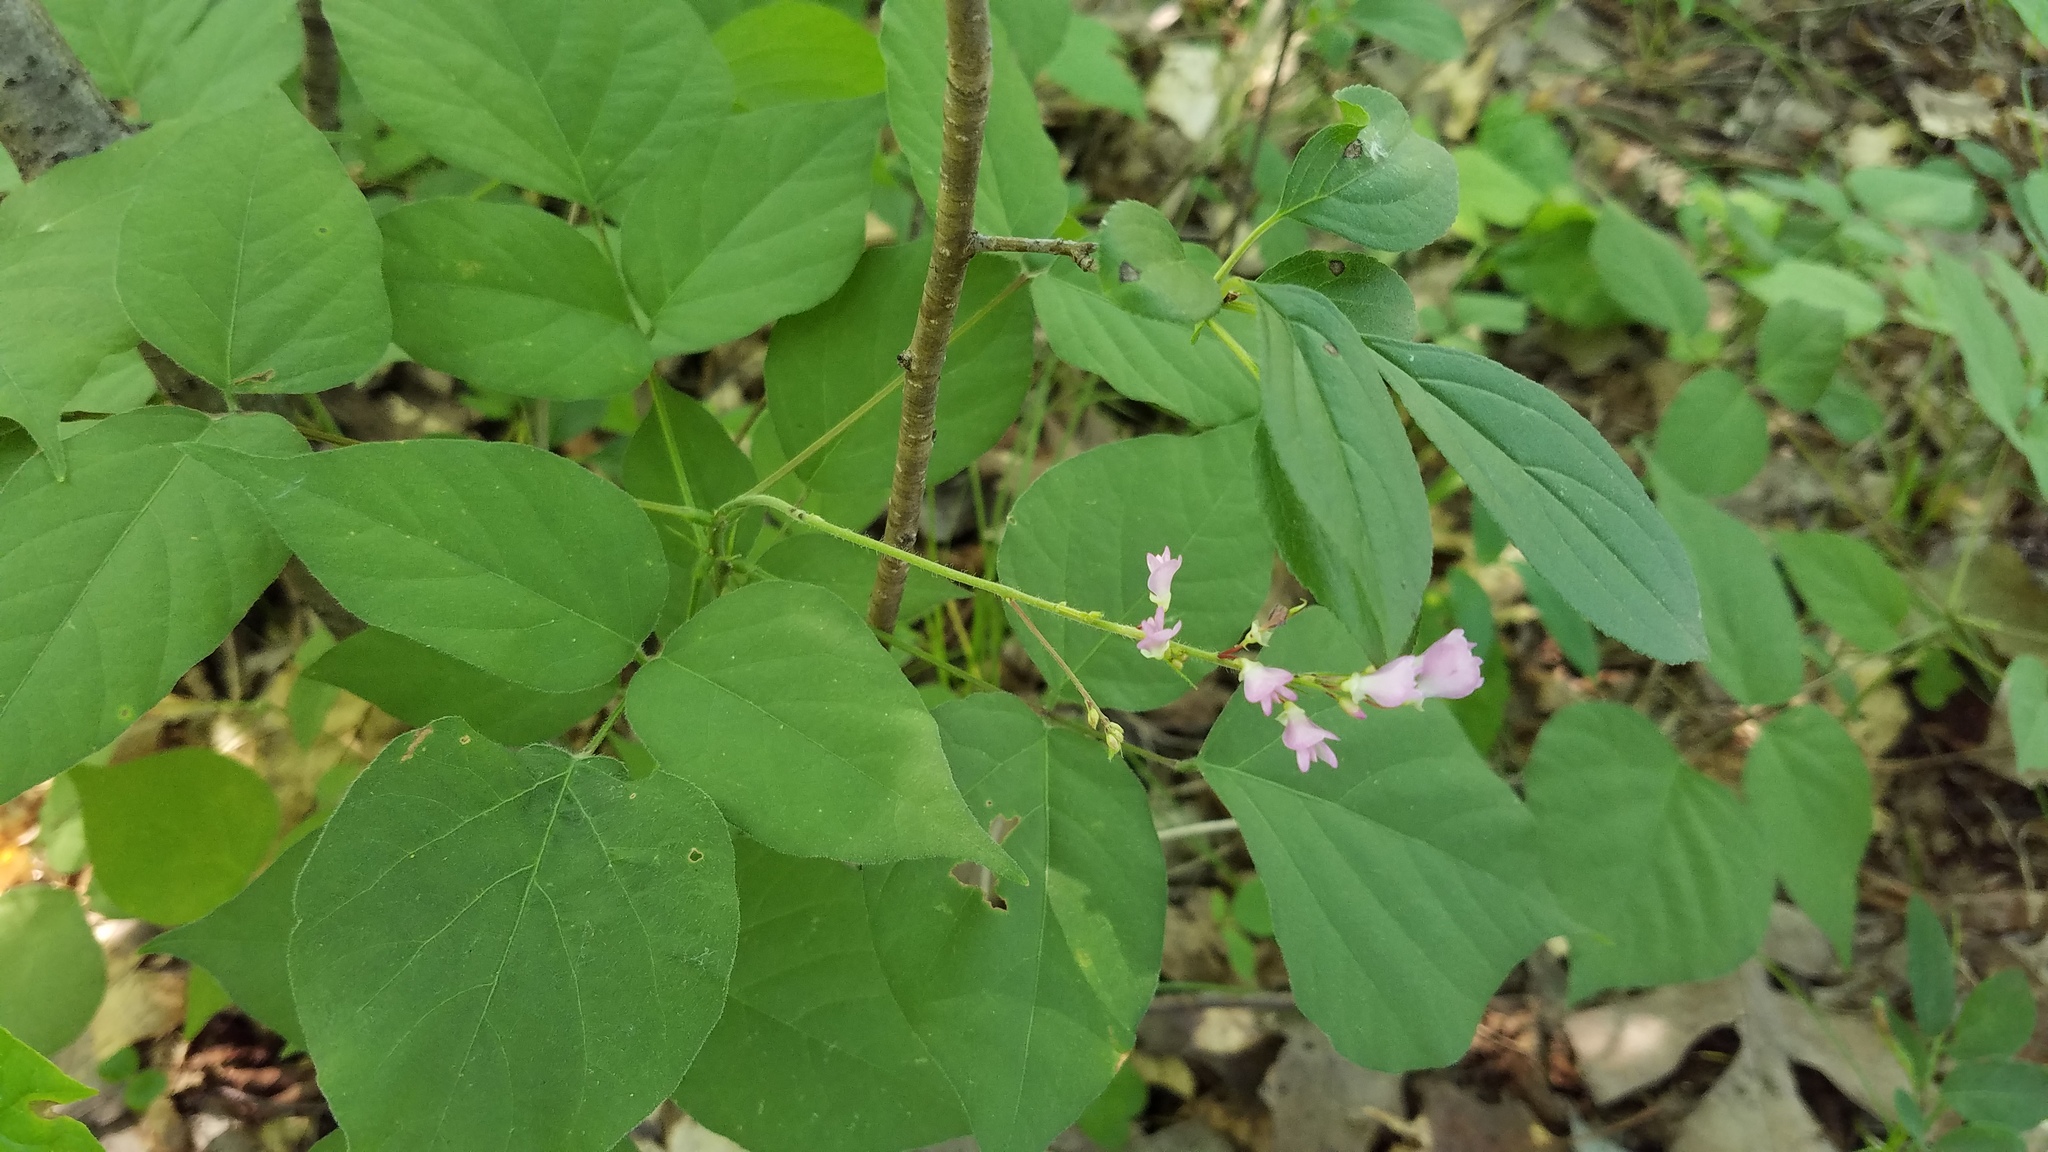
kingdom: Plantae
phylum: Tracheophyta
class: Magnoliopsida
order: Fabales
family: Fabaceae
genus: Hylodesmum
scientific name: Hylodesmum glutinosum
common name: Clustered-leaved tick-trefoil
